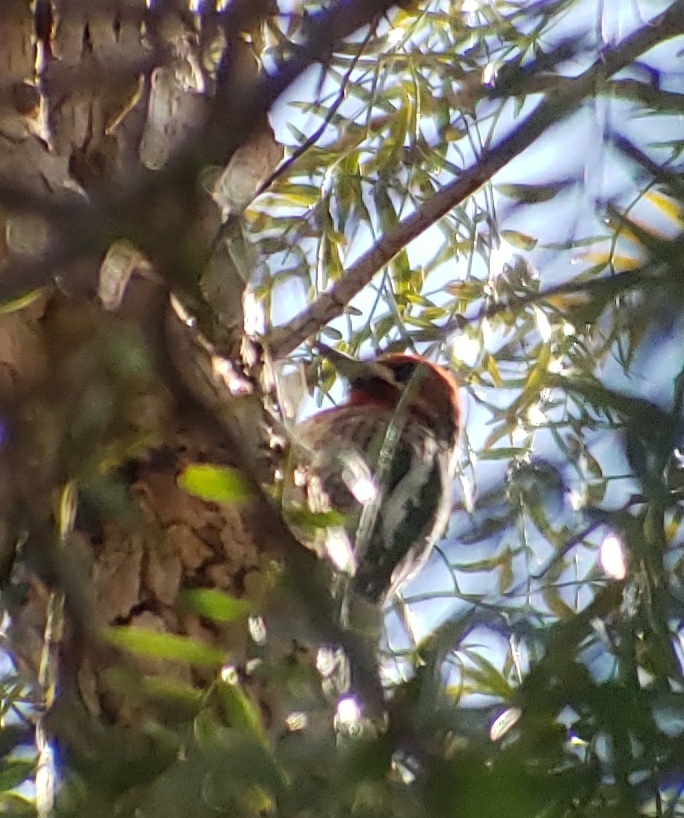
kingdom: Animalia
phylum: Chordata
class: Aves
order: Piciformes
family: Picidae
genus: Sphyrapicus
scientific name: Sphyrapicus ruber
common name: Red-breasted sapsucker
